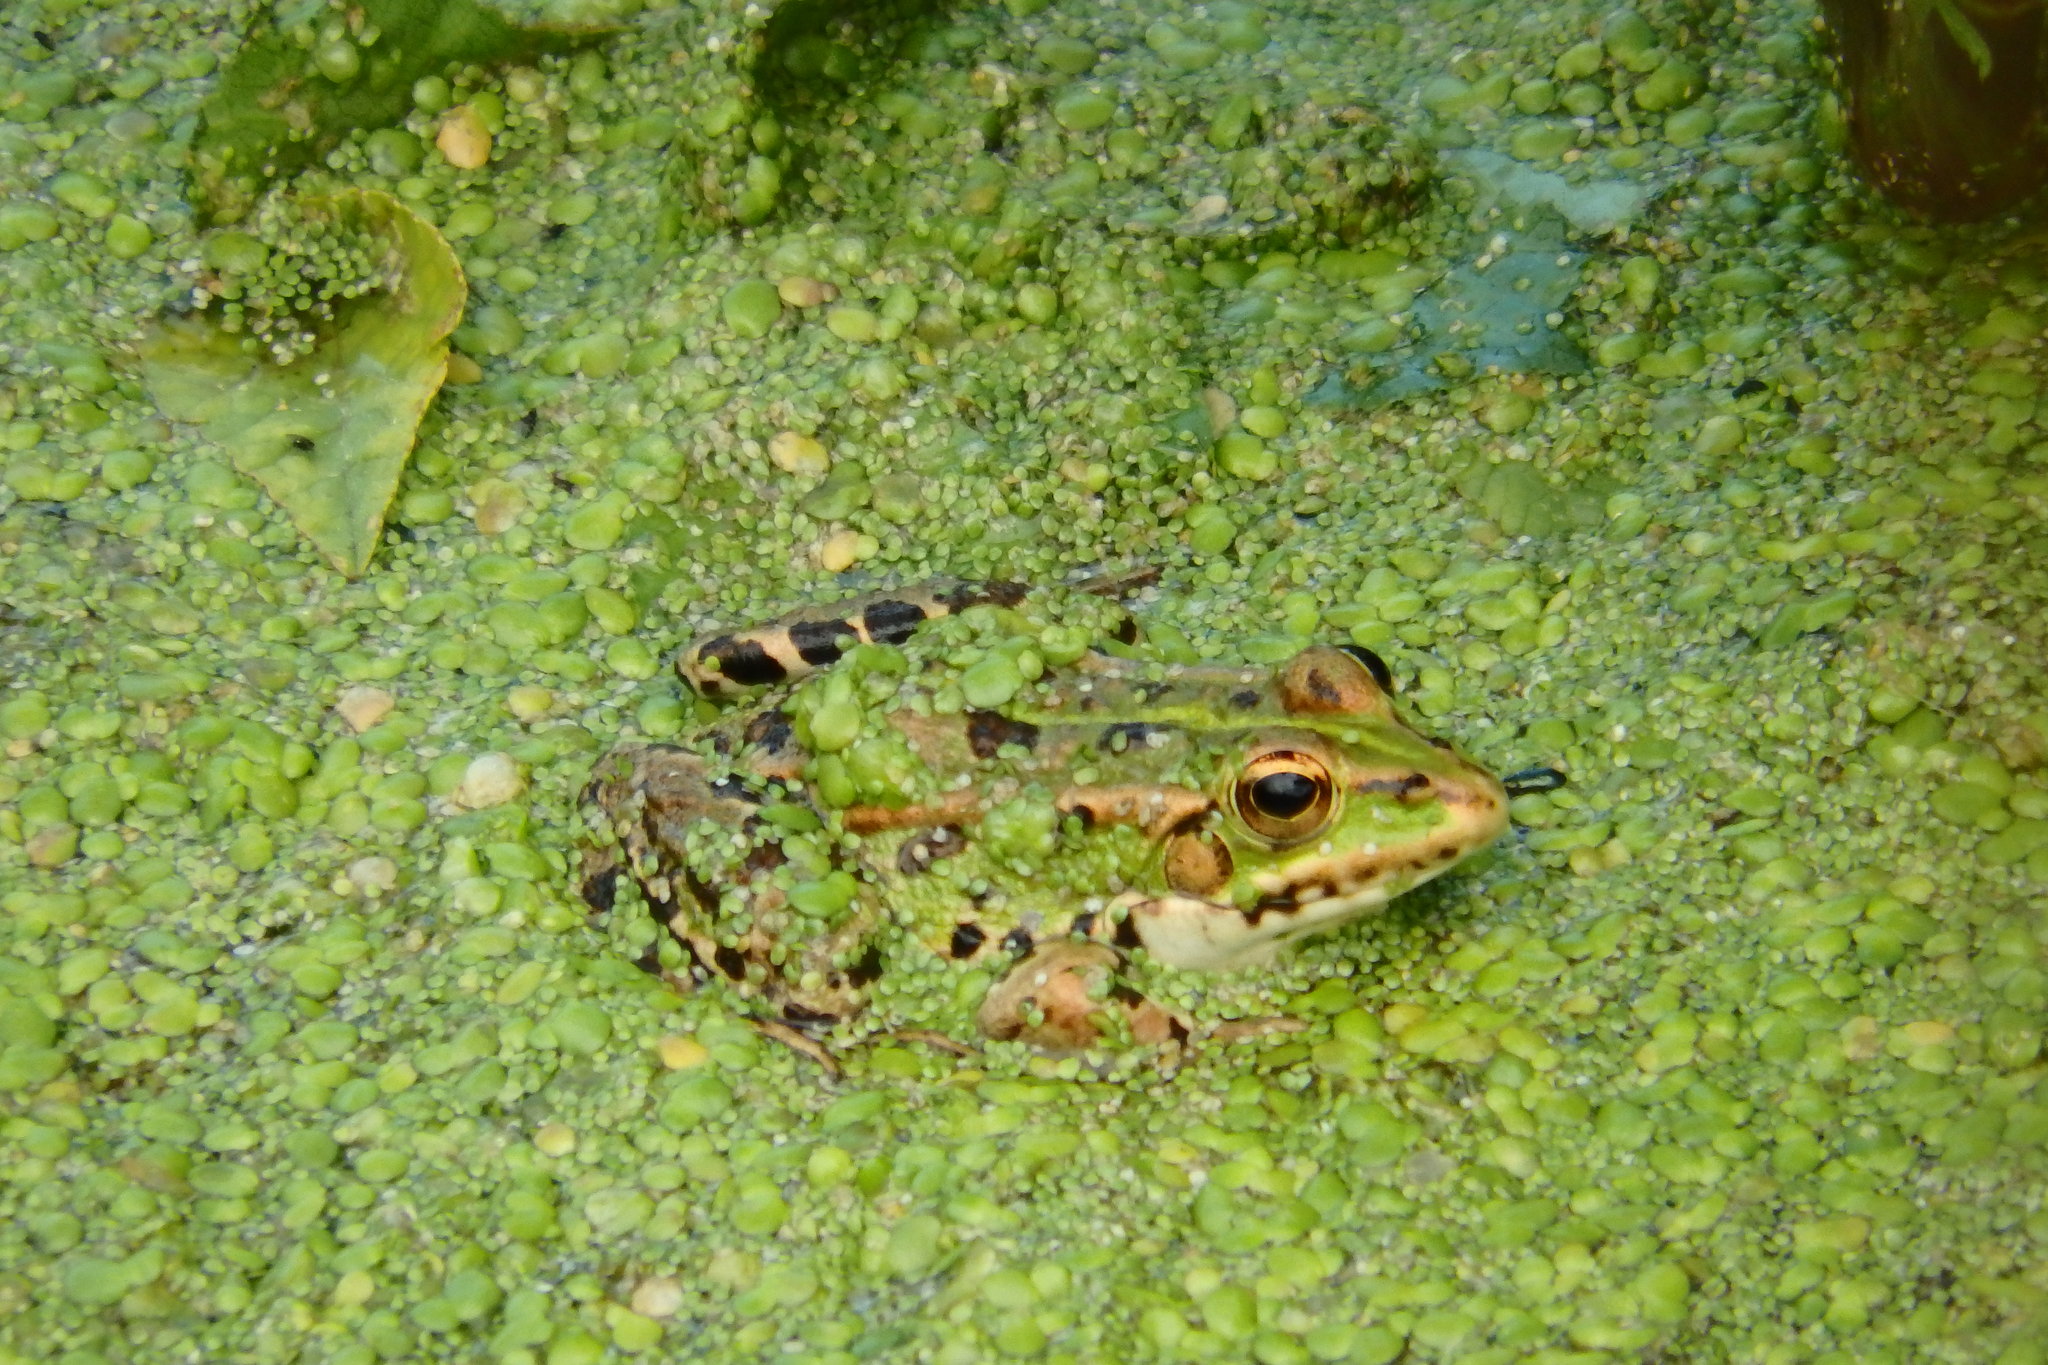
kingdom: Animalia
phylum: Chordata
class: Amphibia
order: Anura
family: Ranidae
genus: Pelophylax
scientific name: Pelophylax perezi
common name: Perez's frog
